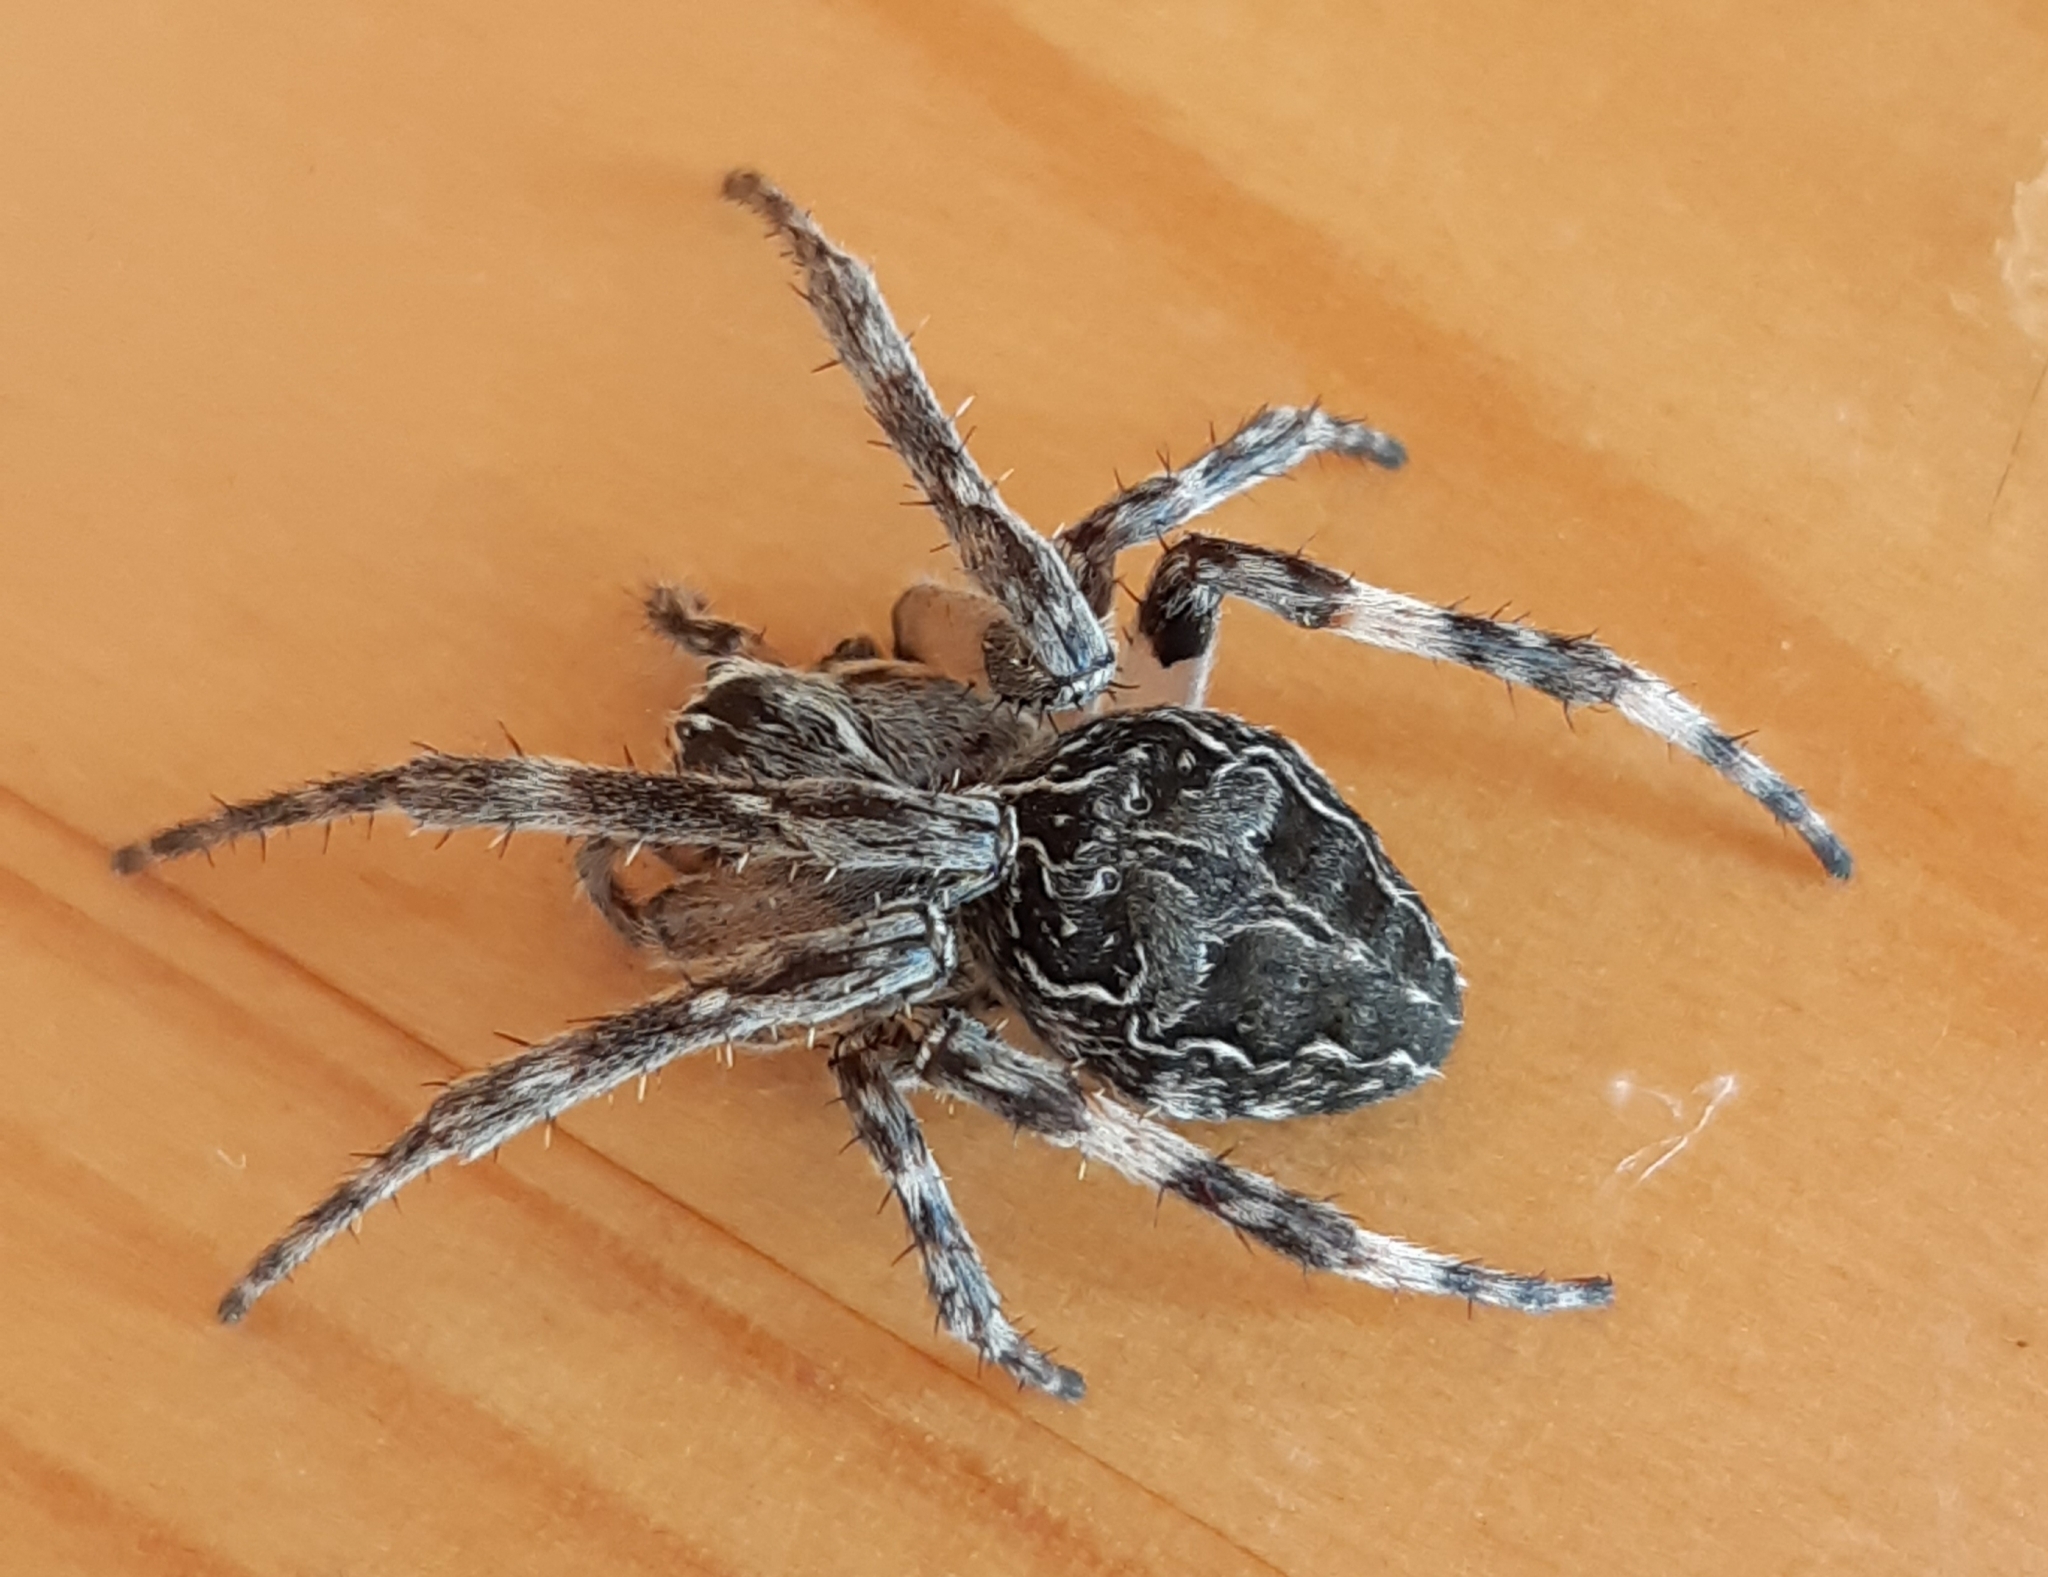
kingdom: Animalia
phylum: Arthropoda
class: Arachnida
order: Araneae
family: Araneidae
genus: Larinioides
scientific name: Larinioides sclopetarius
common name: Bridge orbweaver
